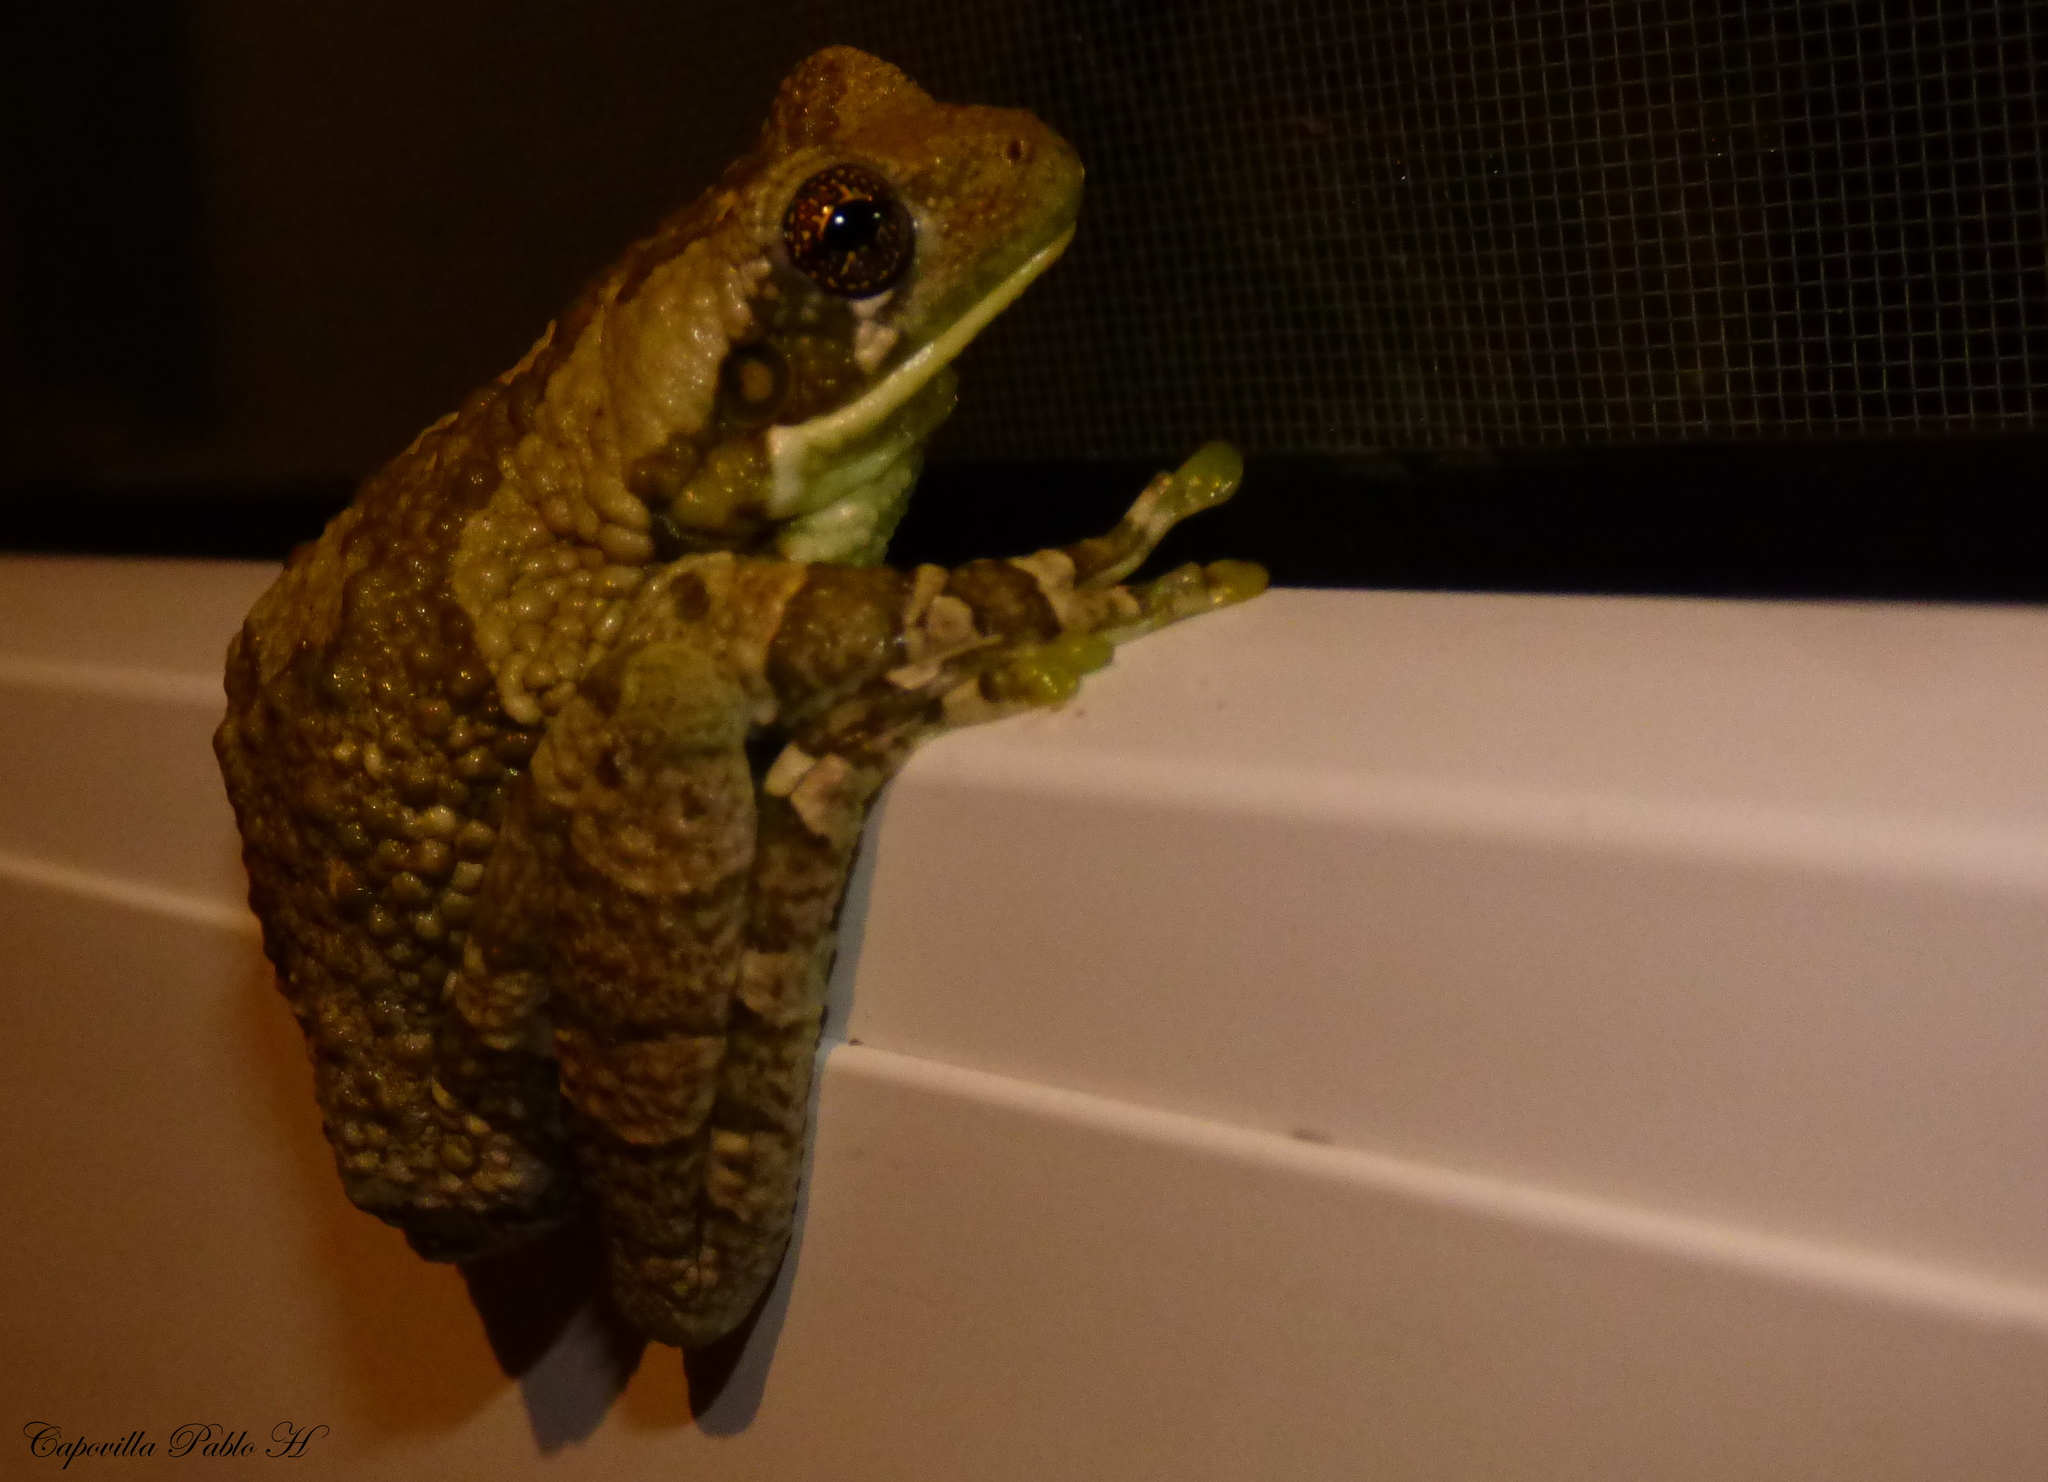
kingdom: Animalia
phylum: Chordata
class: Amphibia
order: Anura
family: Hylidae
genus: Trachycephalus
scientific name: Trachycephalus typhonius
